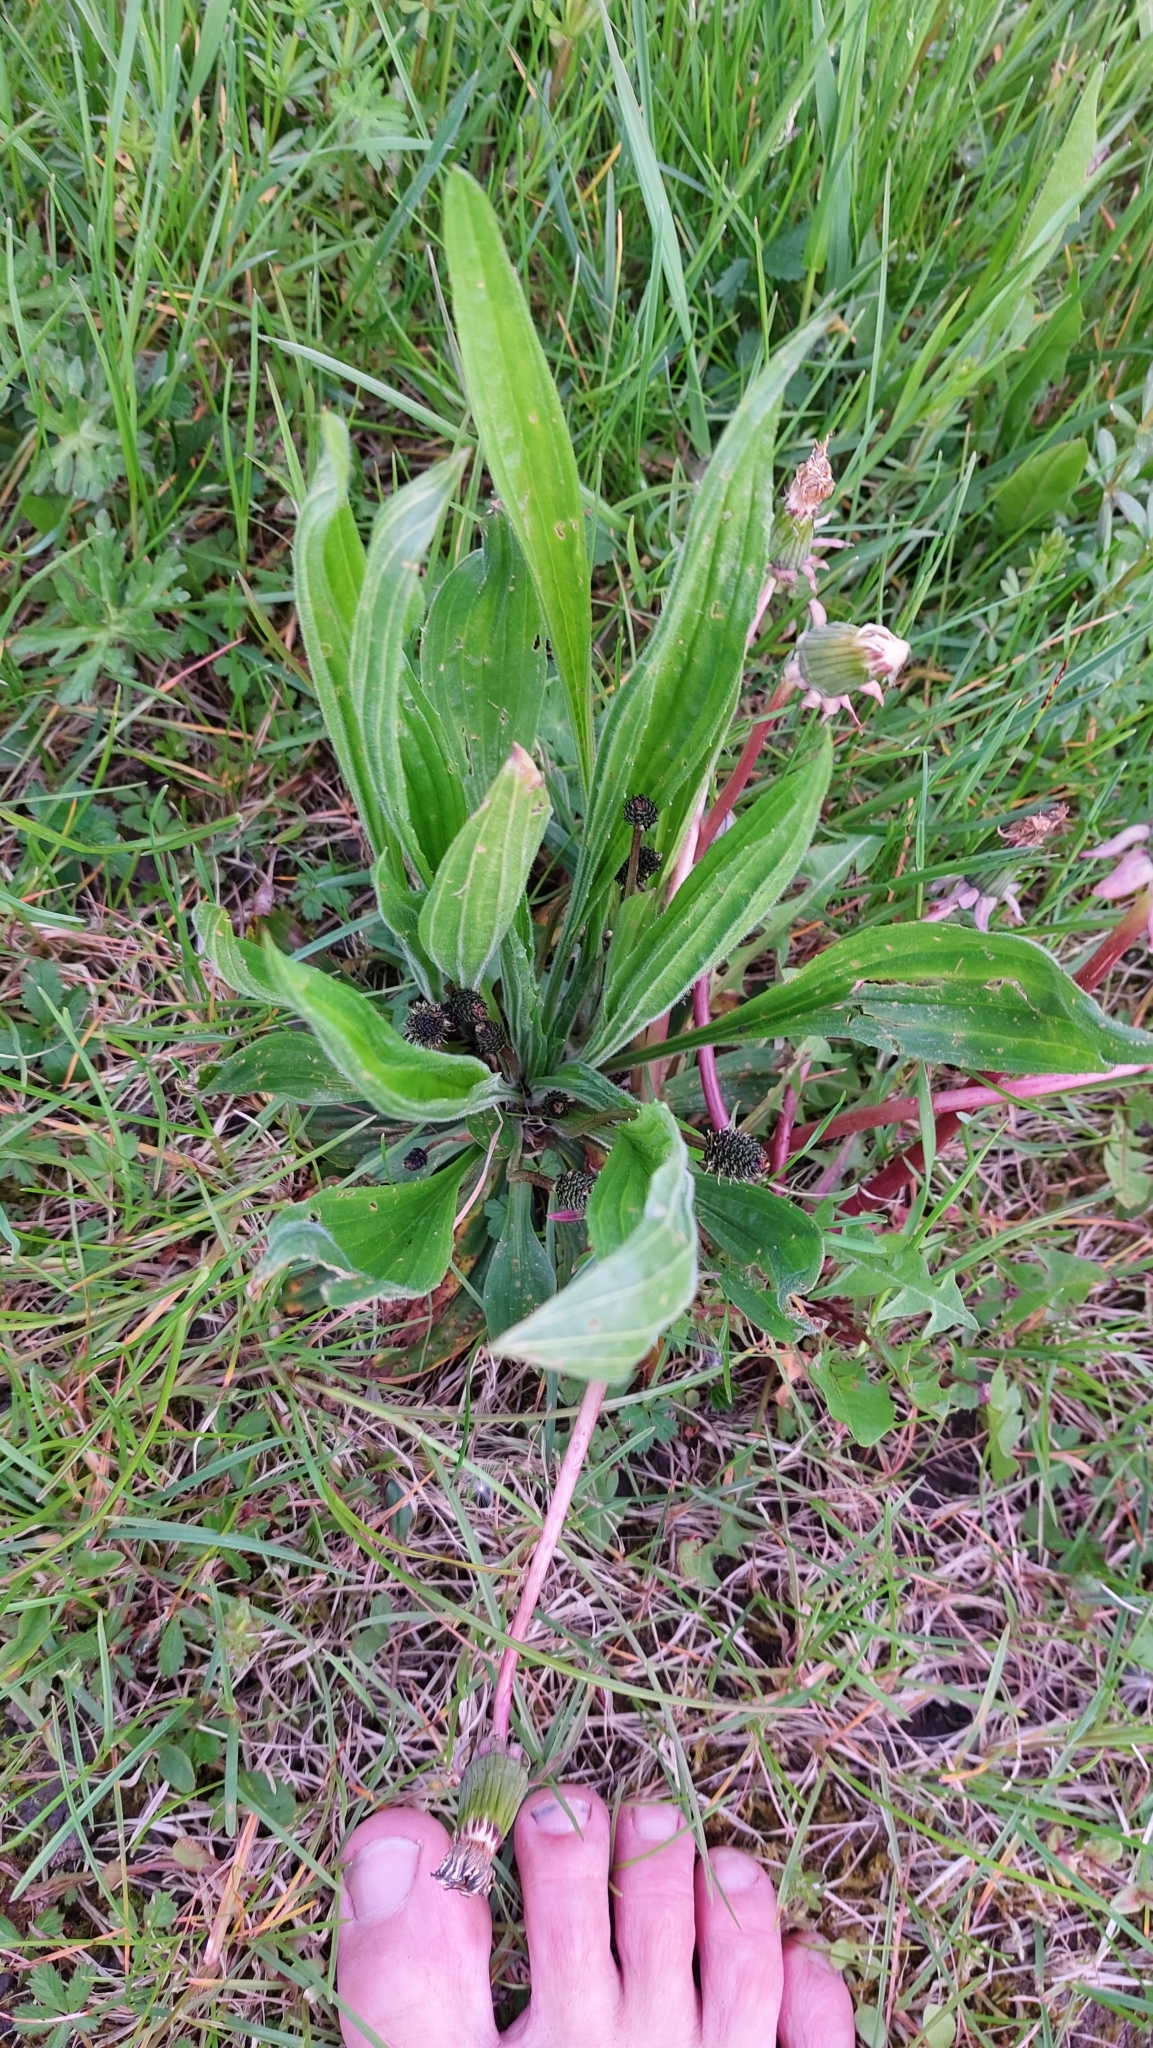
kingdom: Plantae
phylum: Tracheophyta
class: Magnoliopsida
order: Lamiales
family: Plantaginaceae
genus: Plantago
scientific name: Plantago lanceolata
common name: Ribwort plantain
